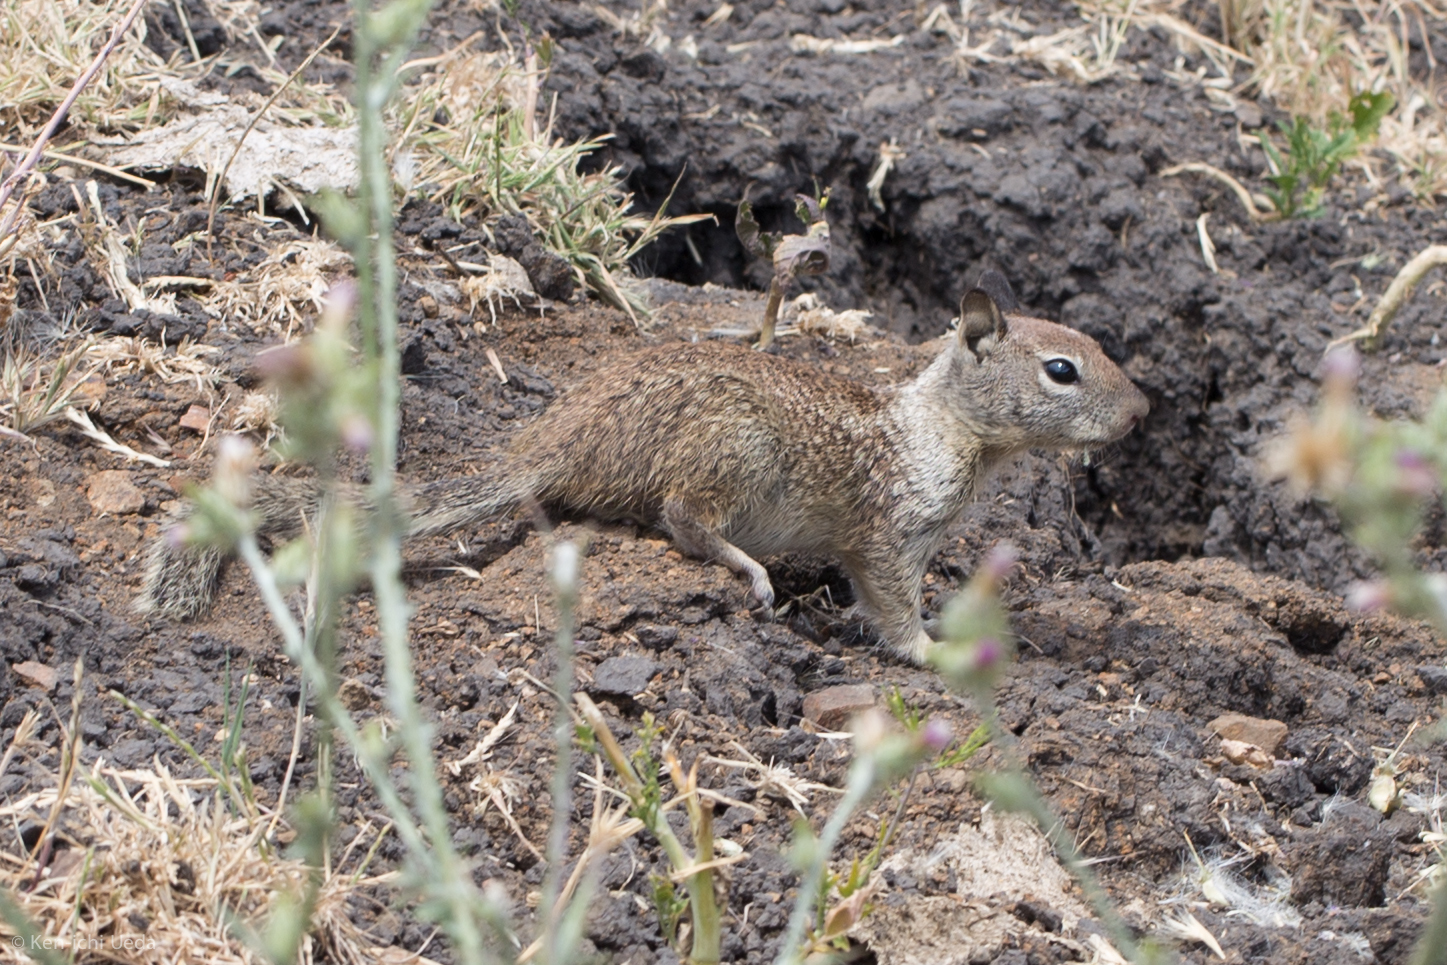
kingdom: Animalia
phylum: Chordata
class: Mammalia
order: Rodentia
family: Sciuridae
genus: Otospermophilus
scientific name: Otospermophilus beecheyi
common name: California ground squirrel
